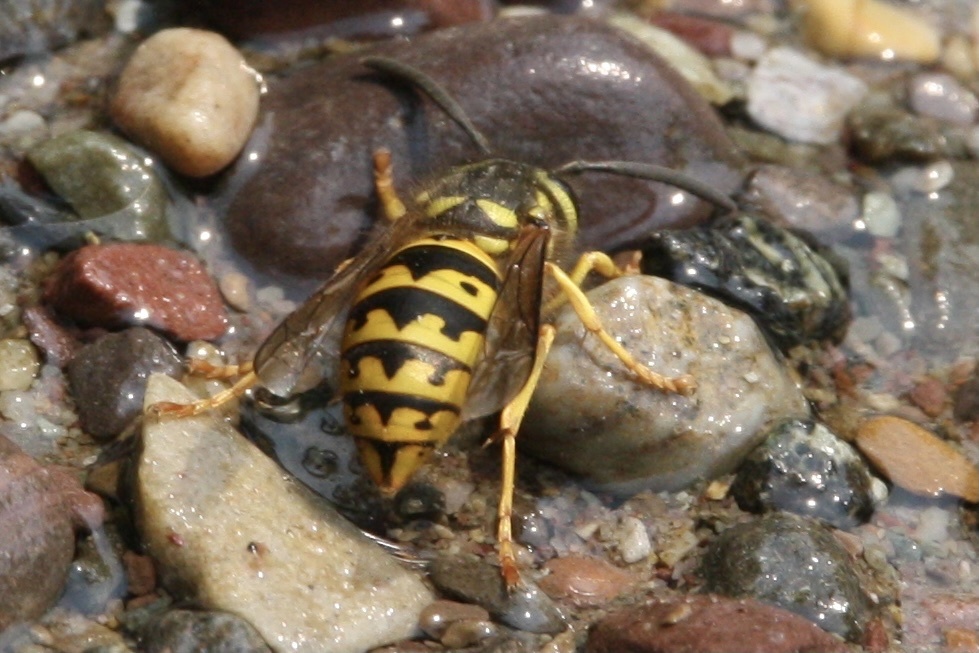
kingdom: Animalia
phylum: Arthropoda
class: Insecta
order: Hymenoptera
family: Vespidae
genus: Vespula
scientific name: Vespula pensylvanica
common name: Western yellowjacket
